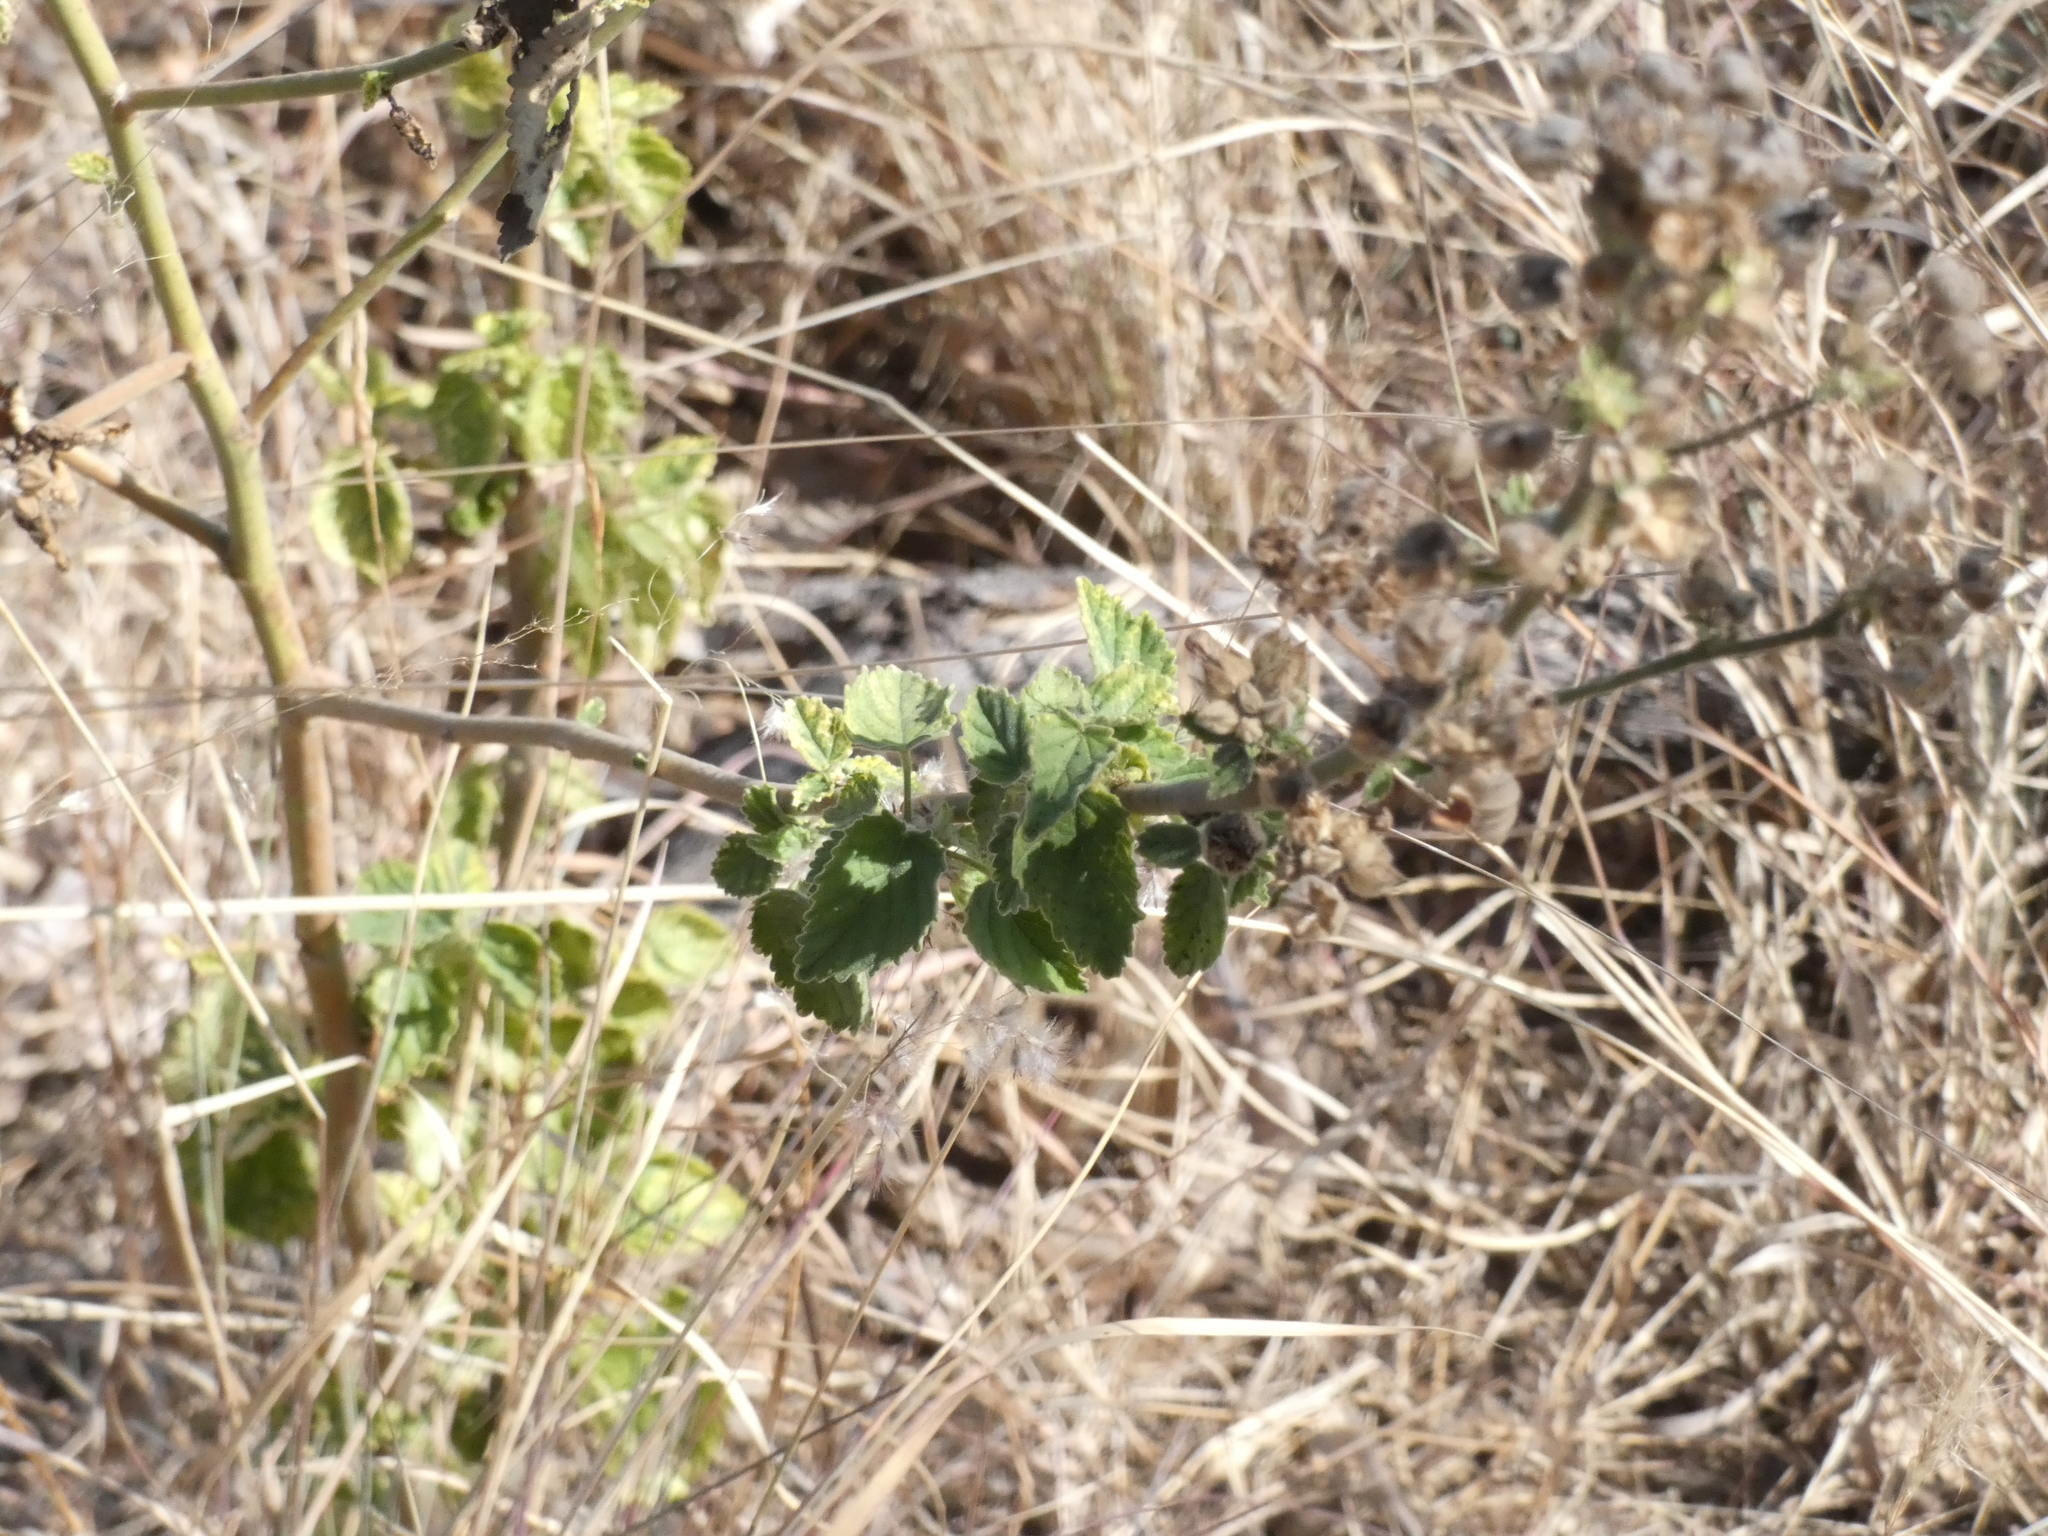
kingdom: Plantae
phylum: Tracheophyta
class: Magnoliopsida
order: Malvales
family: Malvaceae
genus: Sida
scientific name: Sida cordifolia
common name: Ilima
